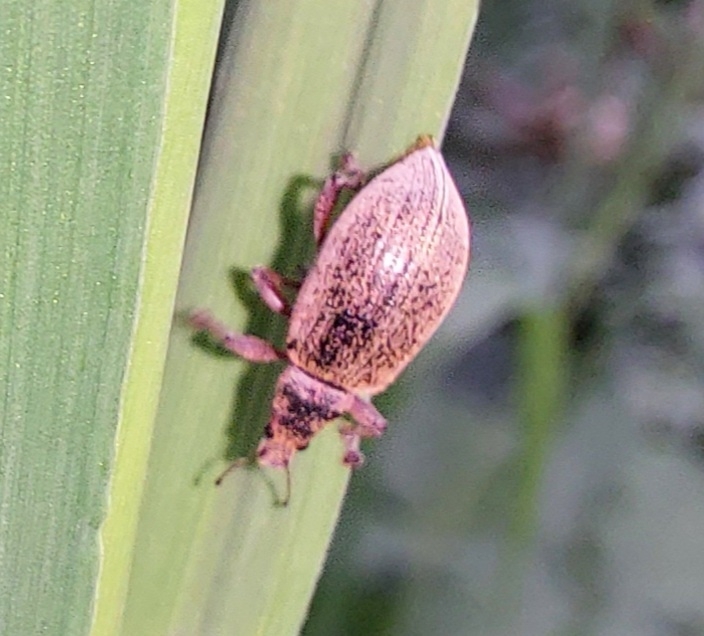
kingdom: Animalia
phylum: Arthropoda
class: Insecta
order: Coleoptera
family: Curculionidae
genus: Polydrusus
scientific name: Polydrusus mollis
